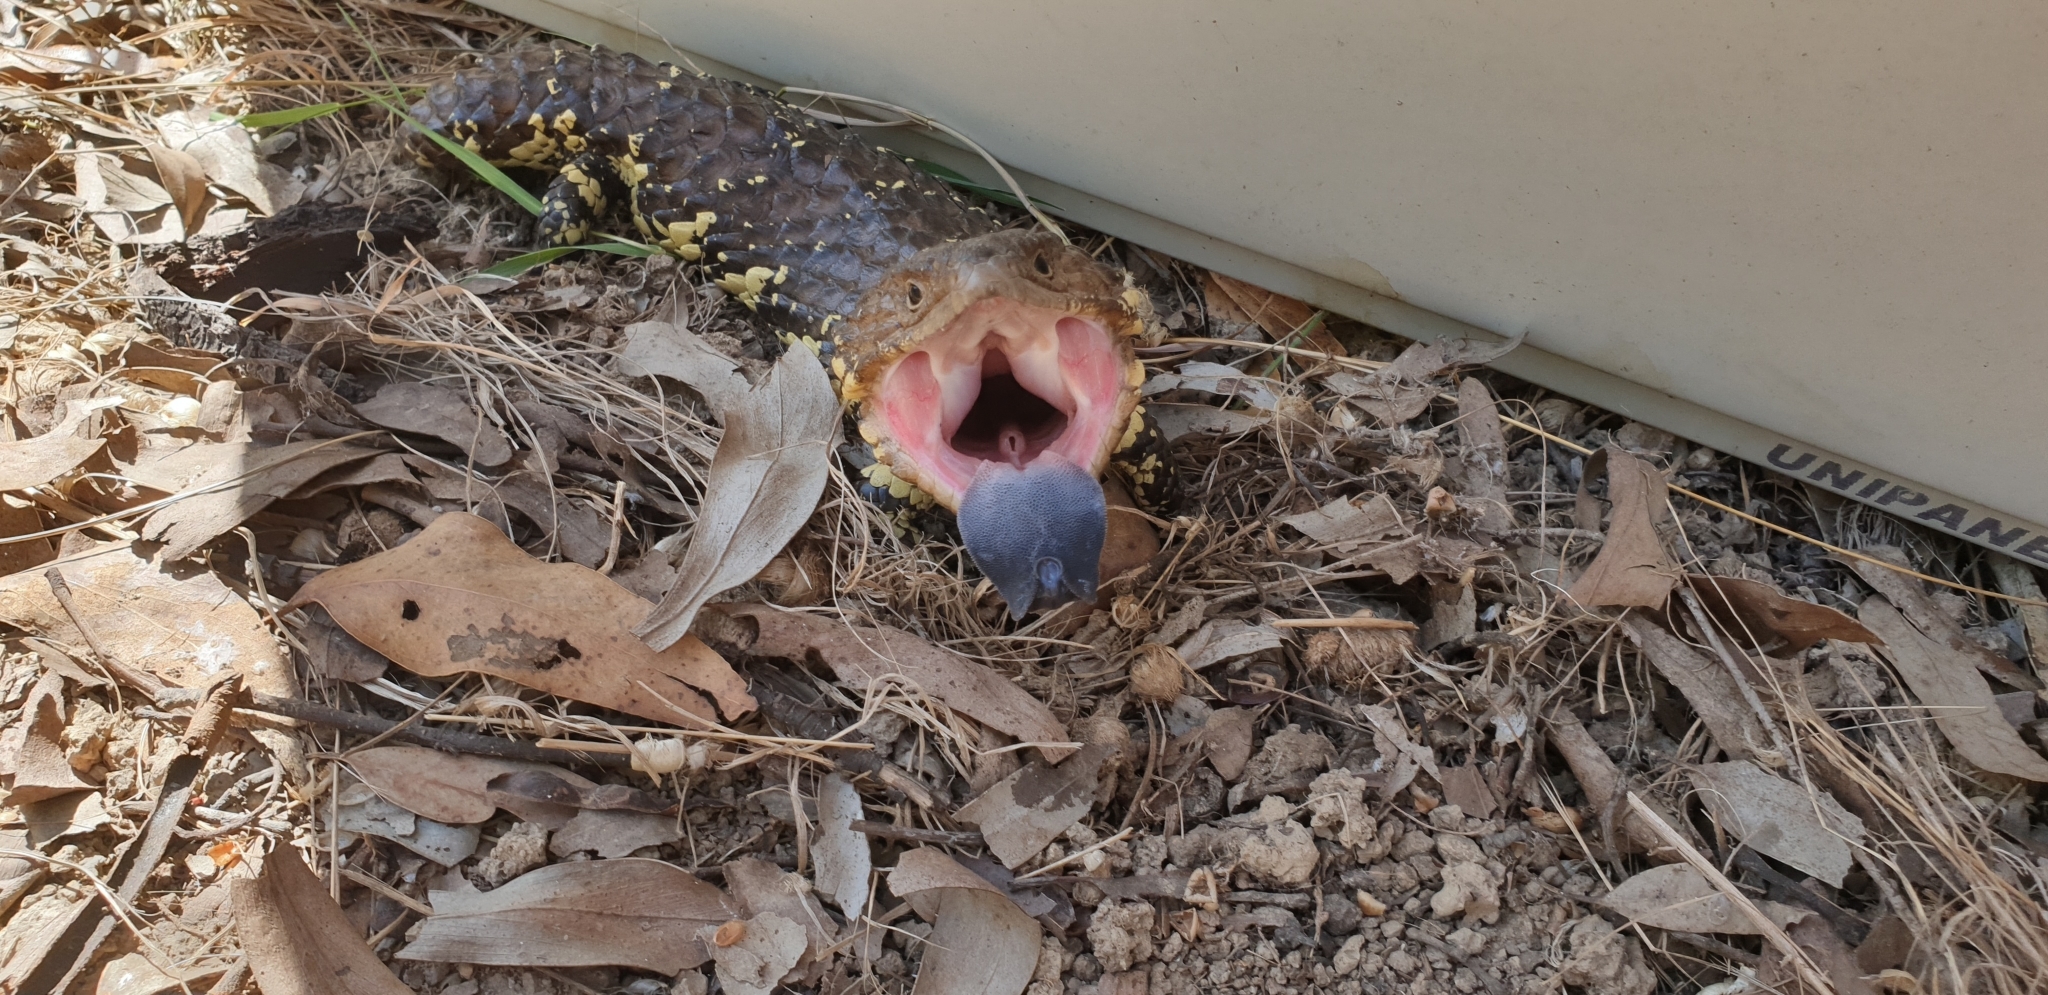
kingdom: Animalia
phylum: Chordata
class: Squamata
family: Scincidae
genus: Tiliqua
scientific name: Tiliqua rugosa
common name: Pinecone lizard
